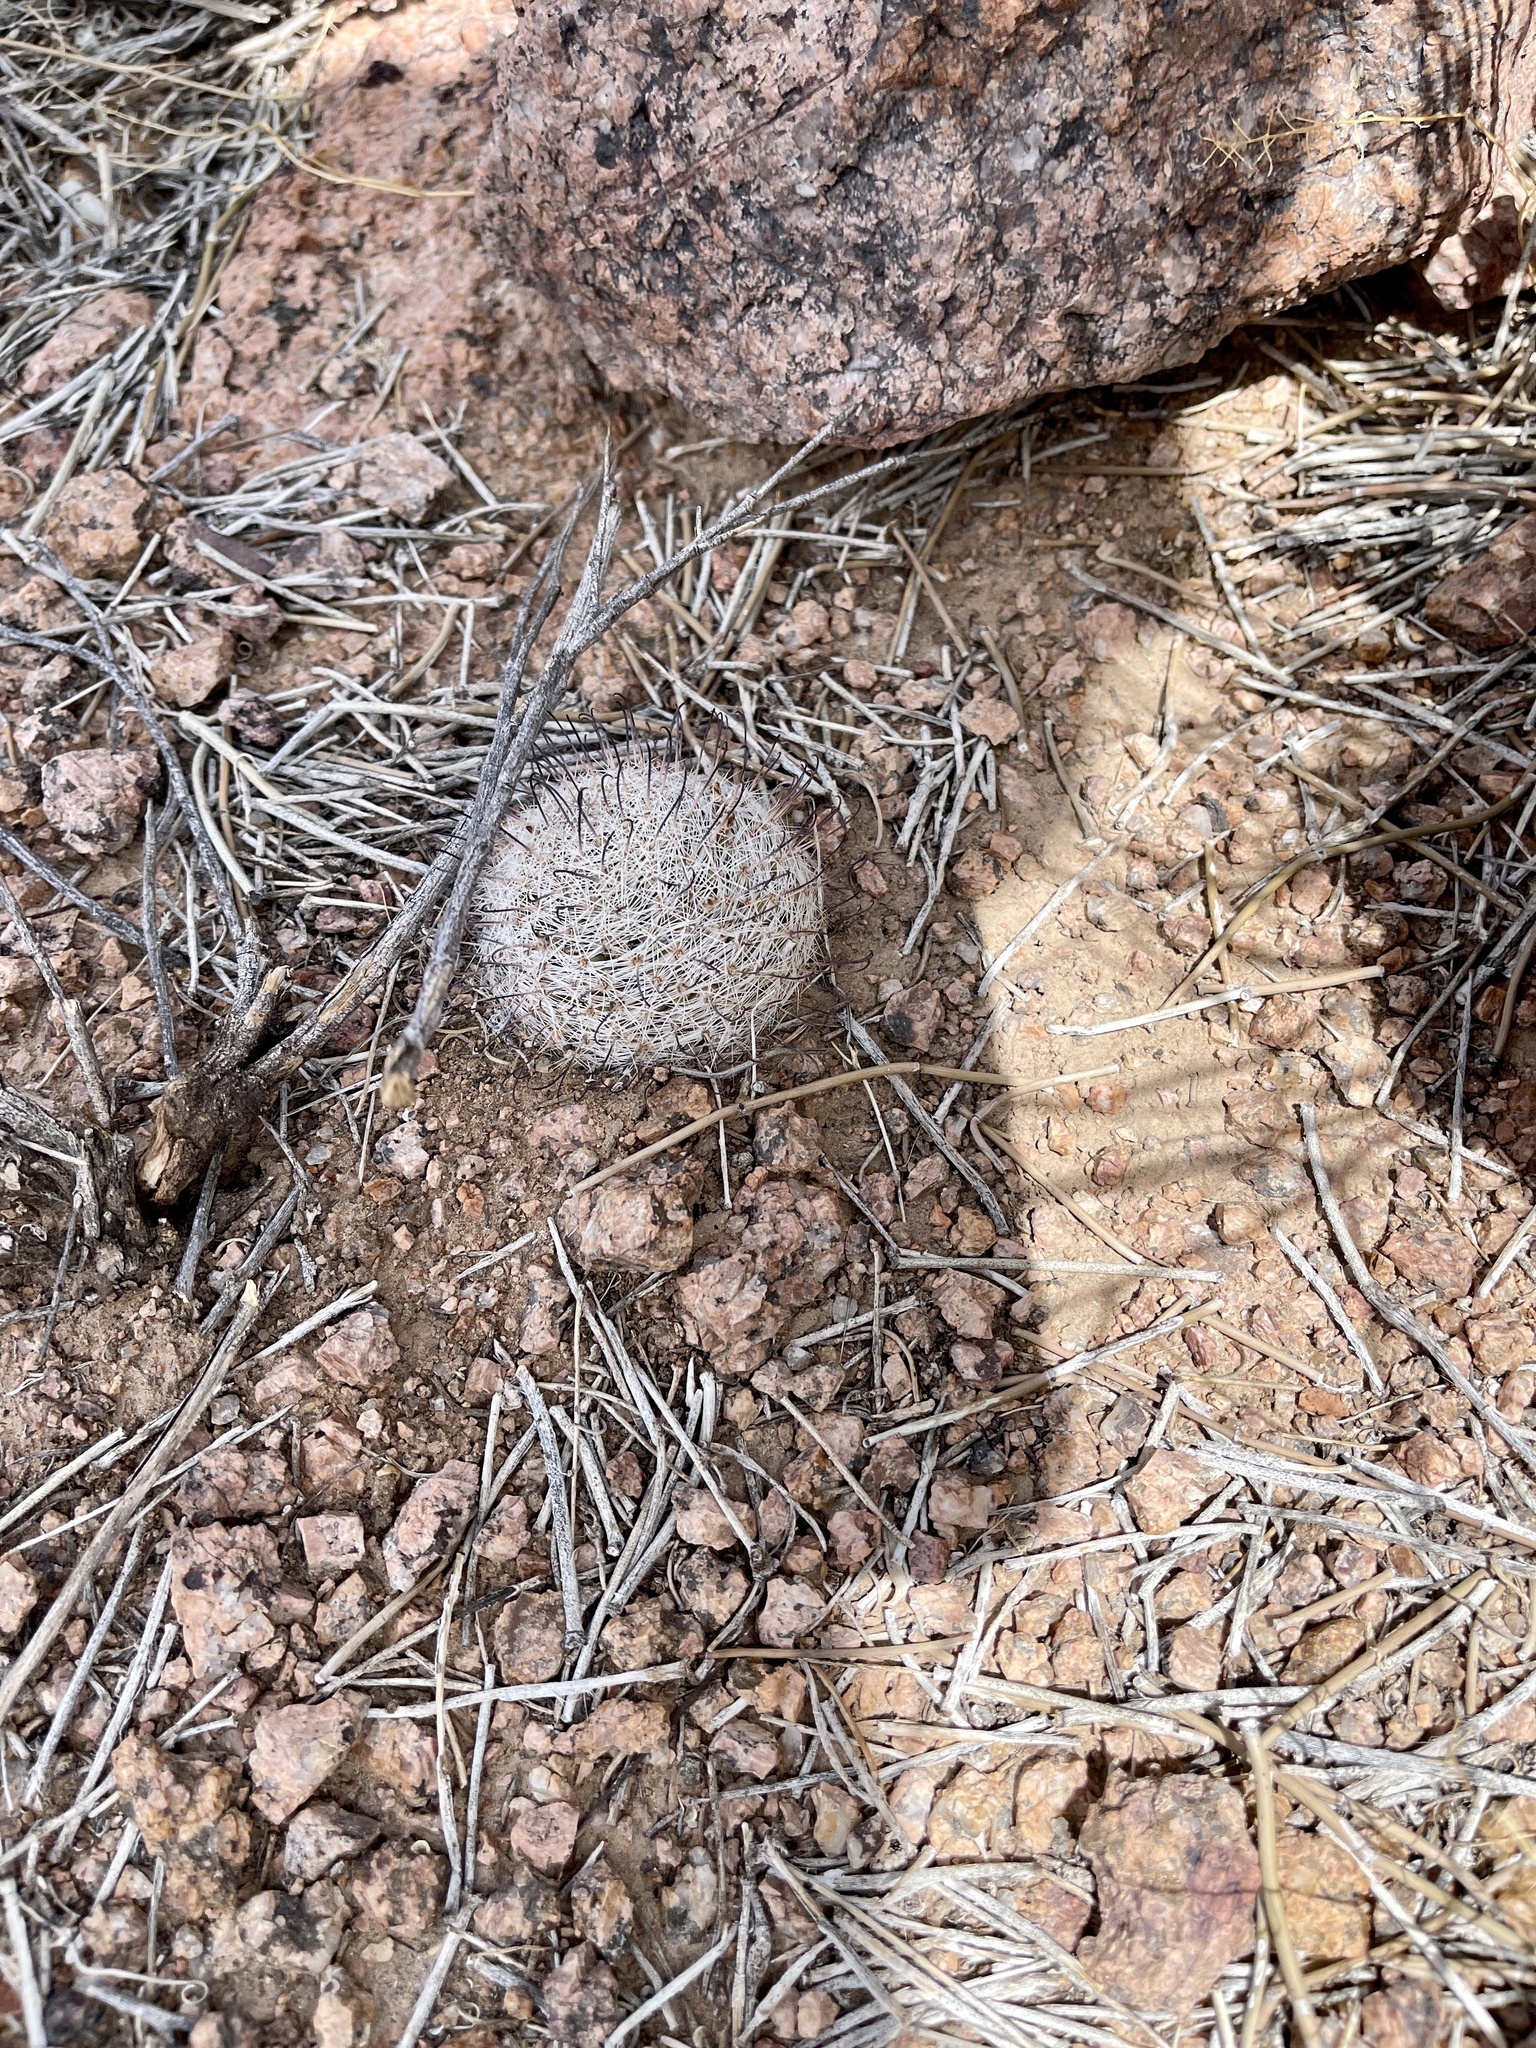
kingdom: Plantae
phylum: Tracheophyta
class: Magnoliopsida
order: Caryophyllales
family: Cactaceae
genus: Cochemiea
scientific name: Cochemiea grahamii
